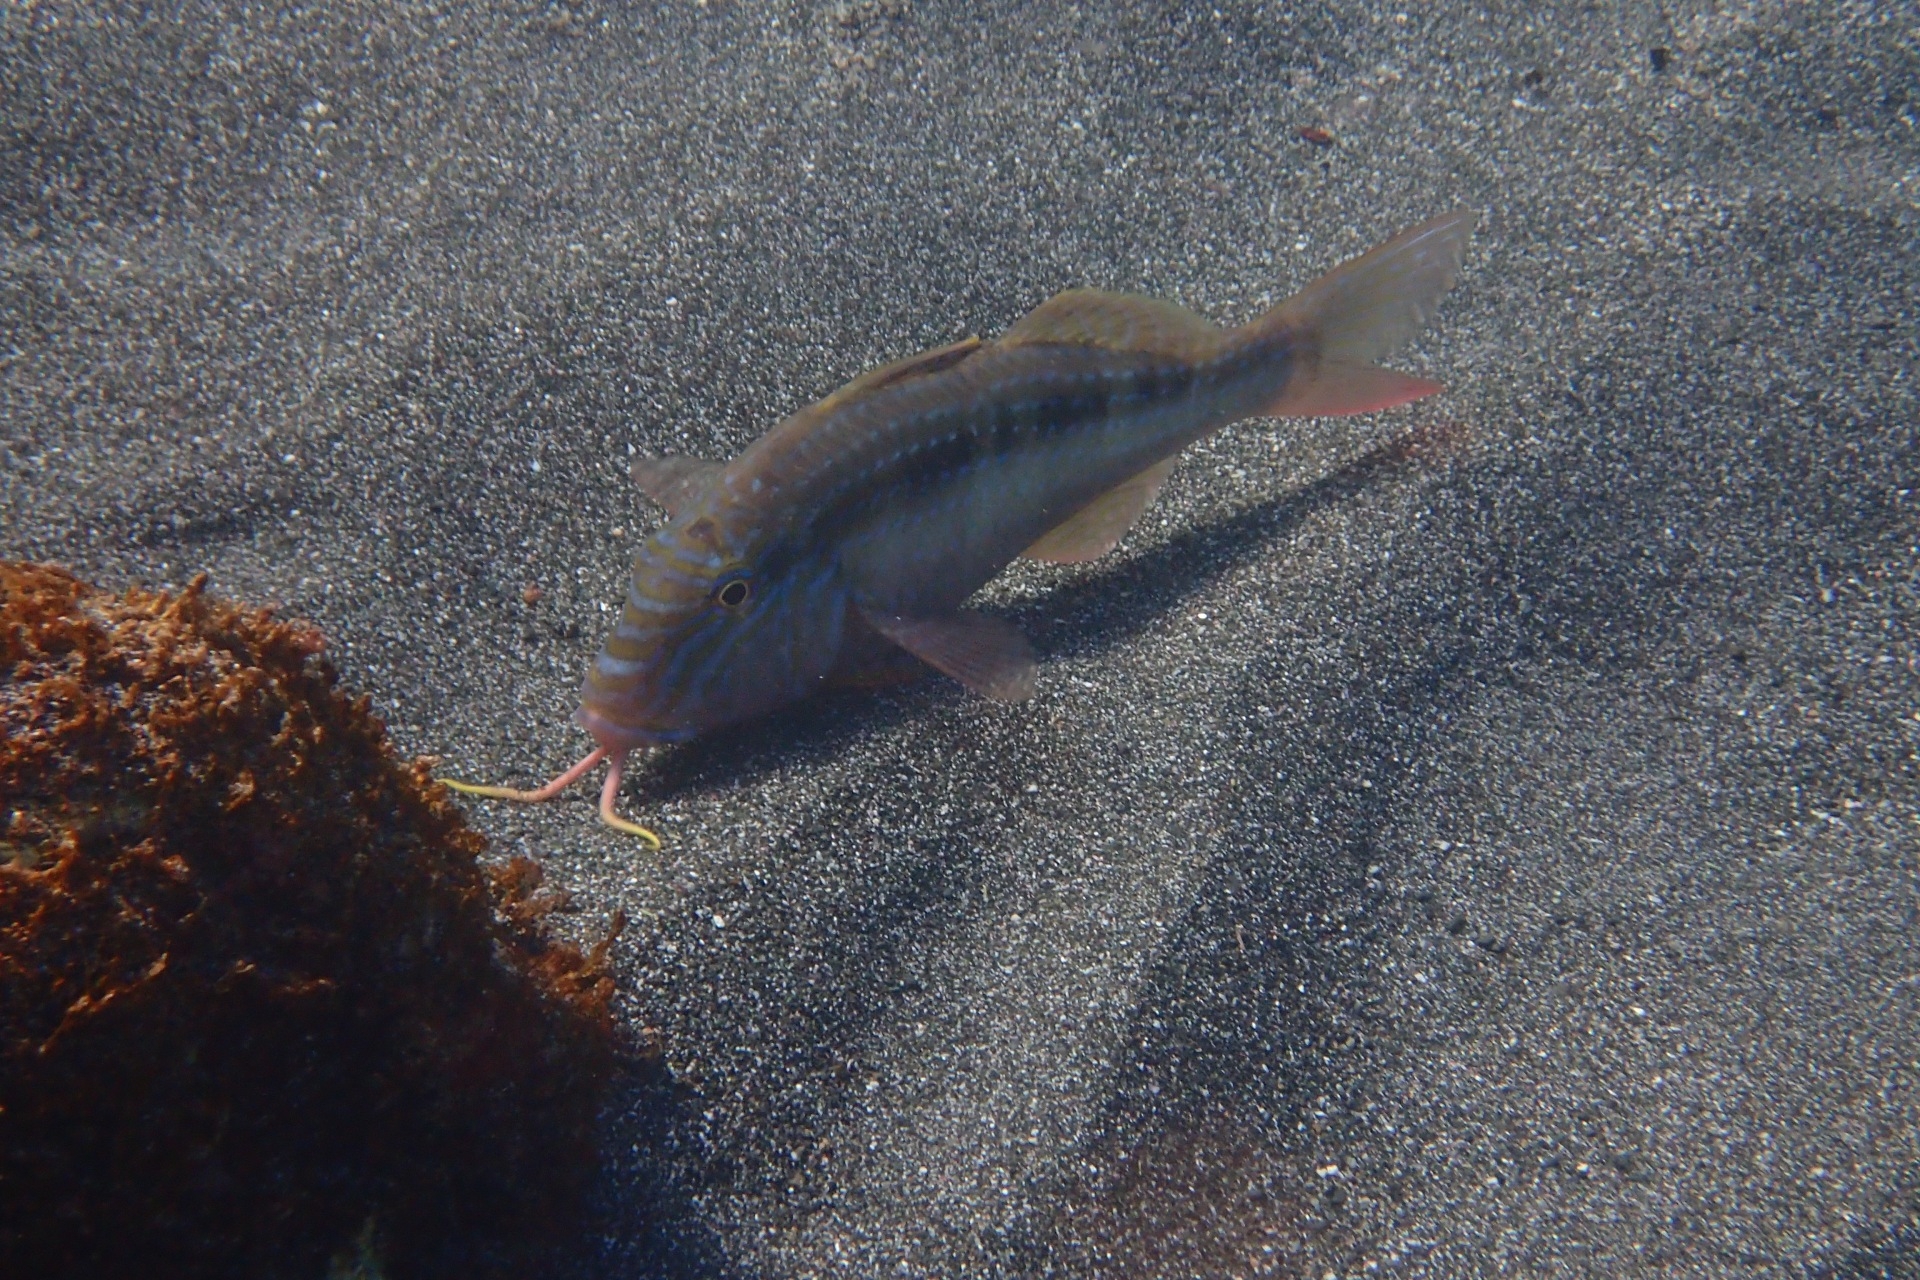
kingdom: Animalia
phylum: Chordata
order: Perciformes
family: Mullidae
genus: Upeneichthys
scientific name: Upeneichthys lineatus
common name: Red mullet
